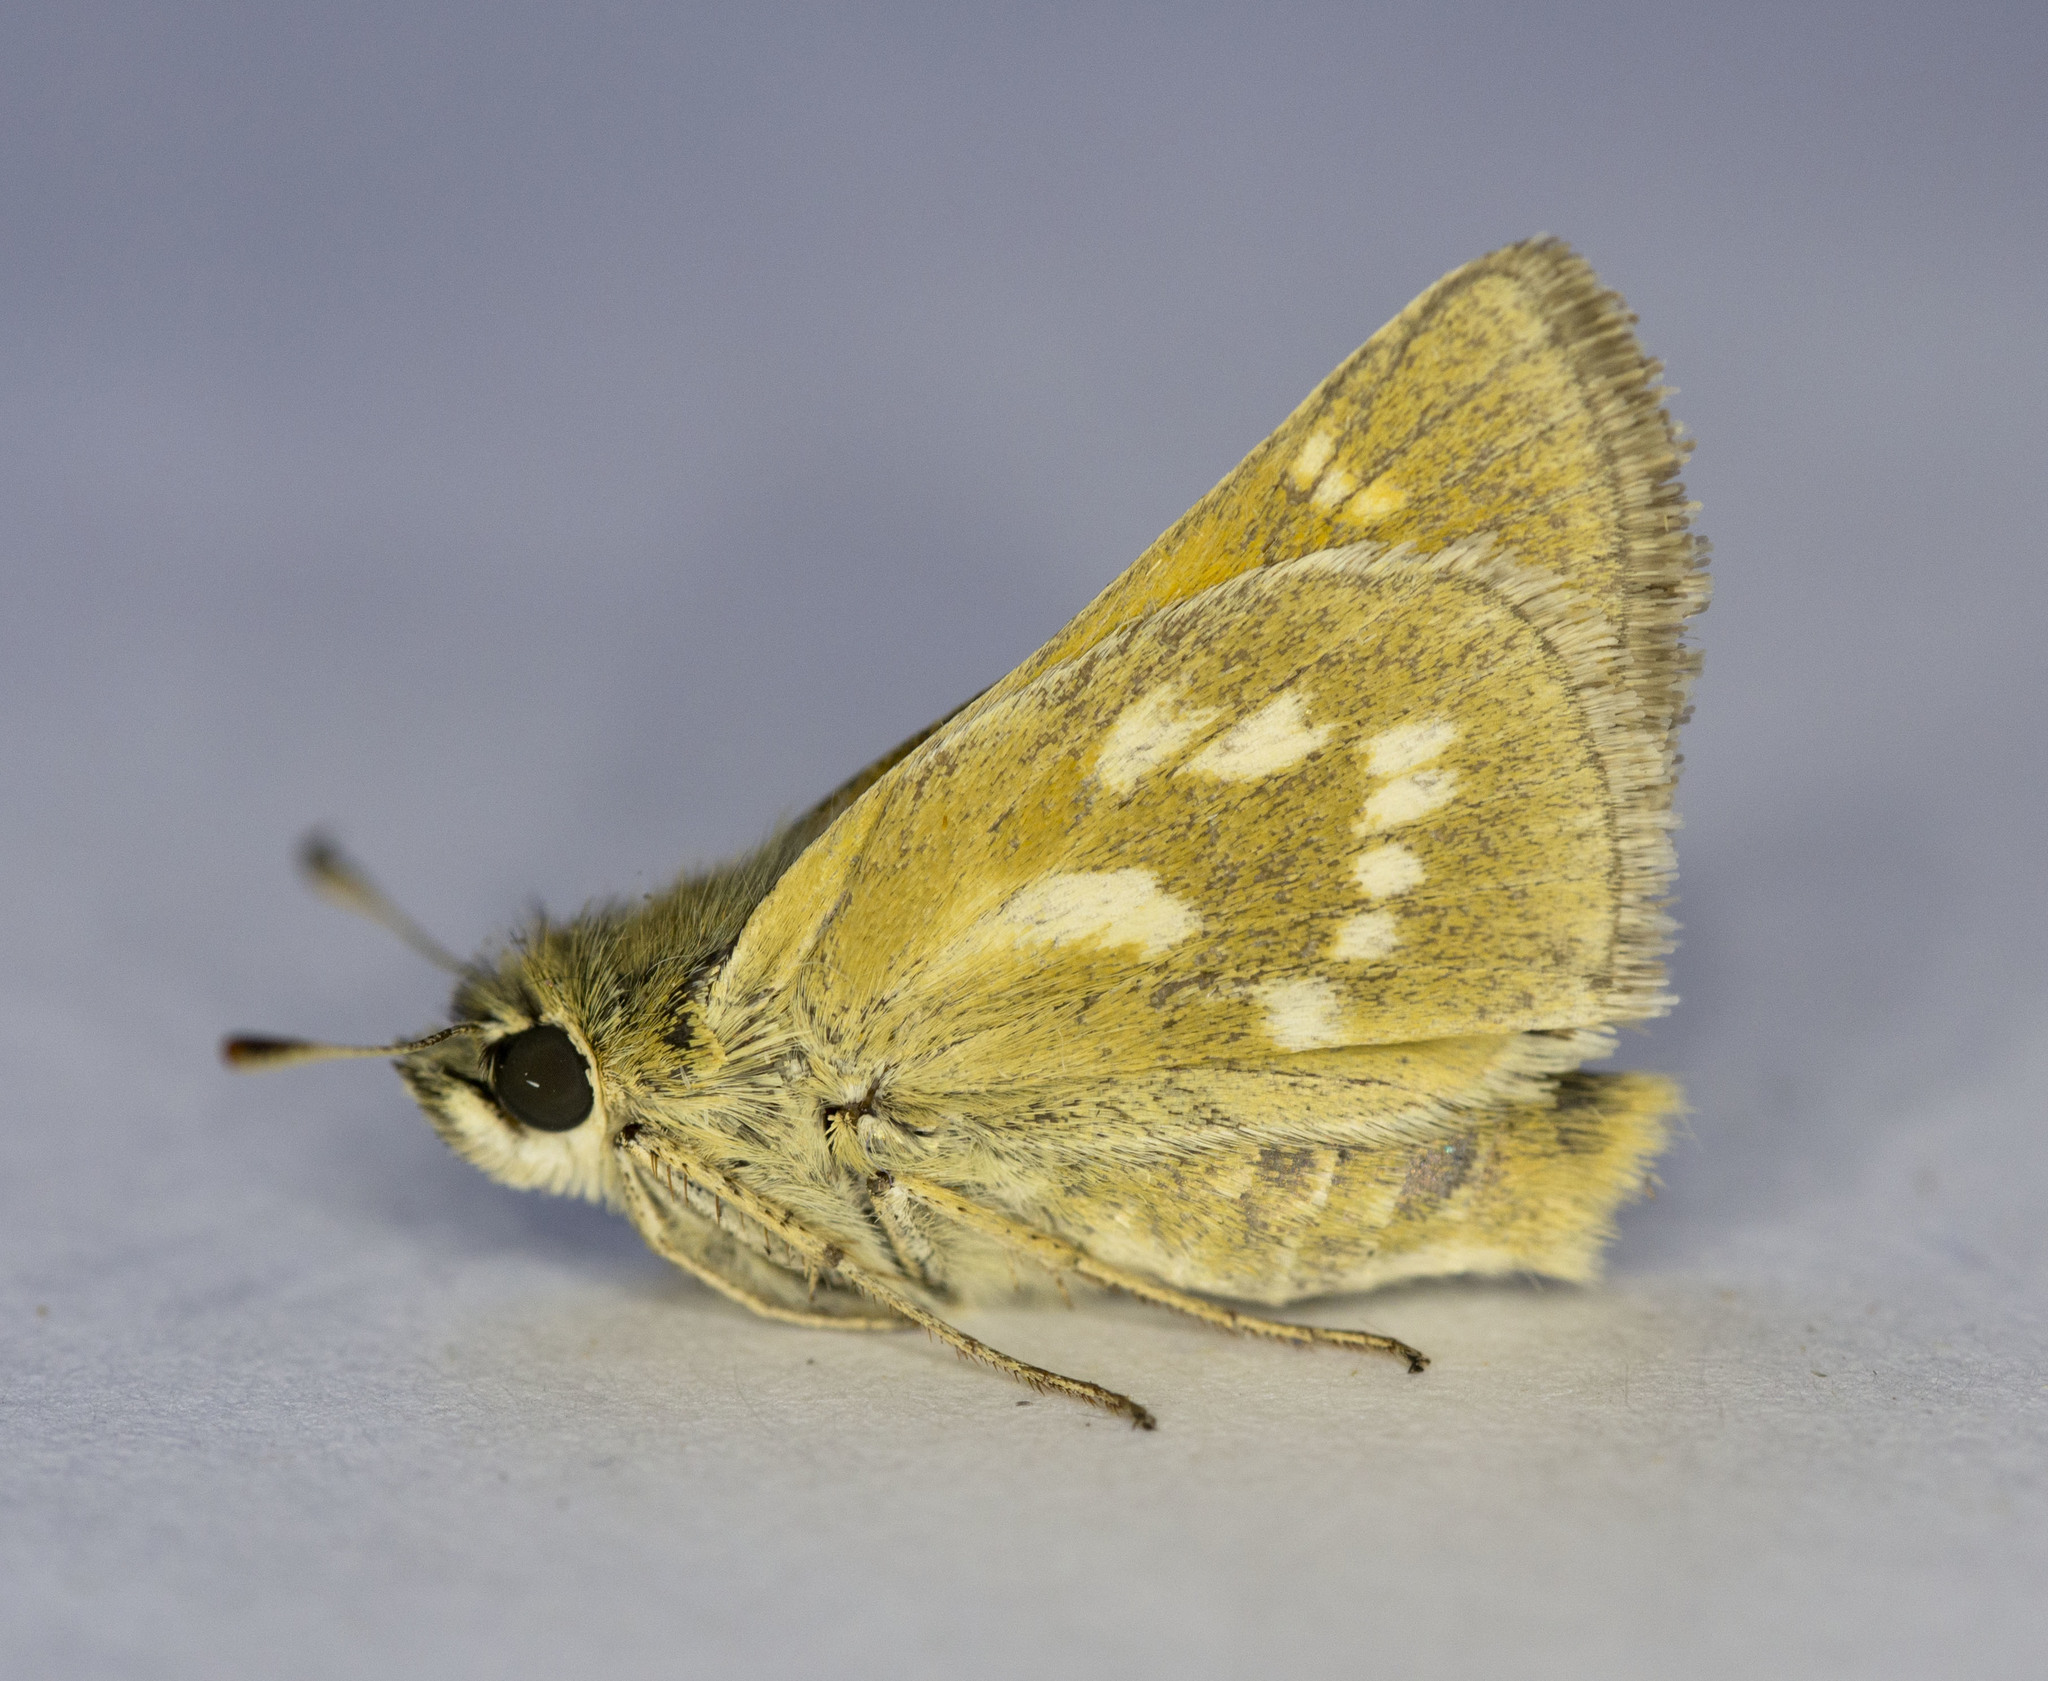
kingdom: Animalia
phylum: Arthropoda
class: Insecta
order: Lepidoptera
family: Hesperiidae
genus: Polites
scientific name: Polites mystic
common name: Long dash
